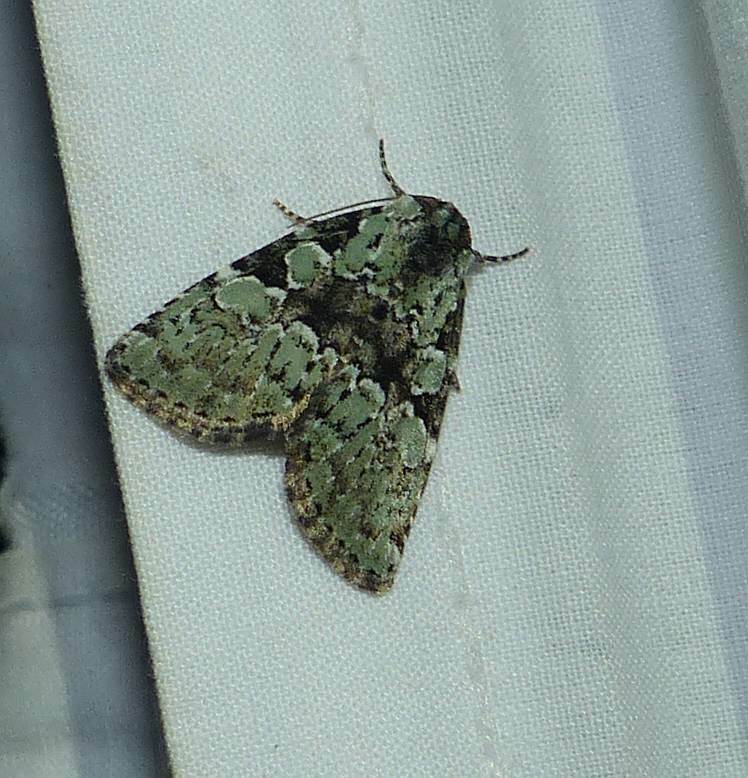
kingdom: Animalia
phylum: Arthropoda
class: Insecta
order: Lepidoptera
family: Noctuidae
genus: Leuconycta
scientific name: Leuconycta lepidula
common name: Marbled-green leuconycta moth
